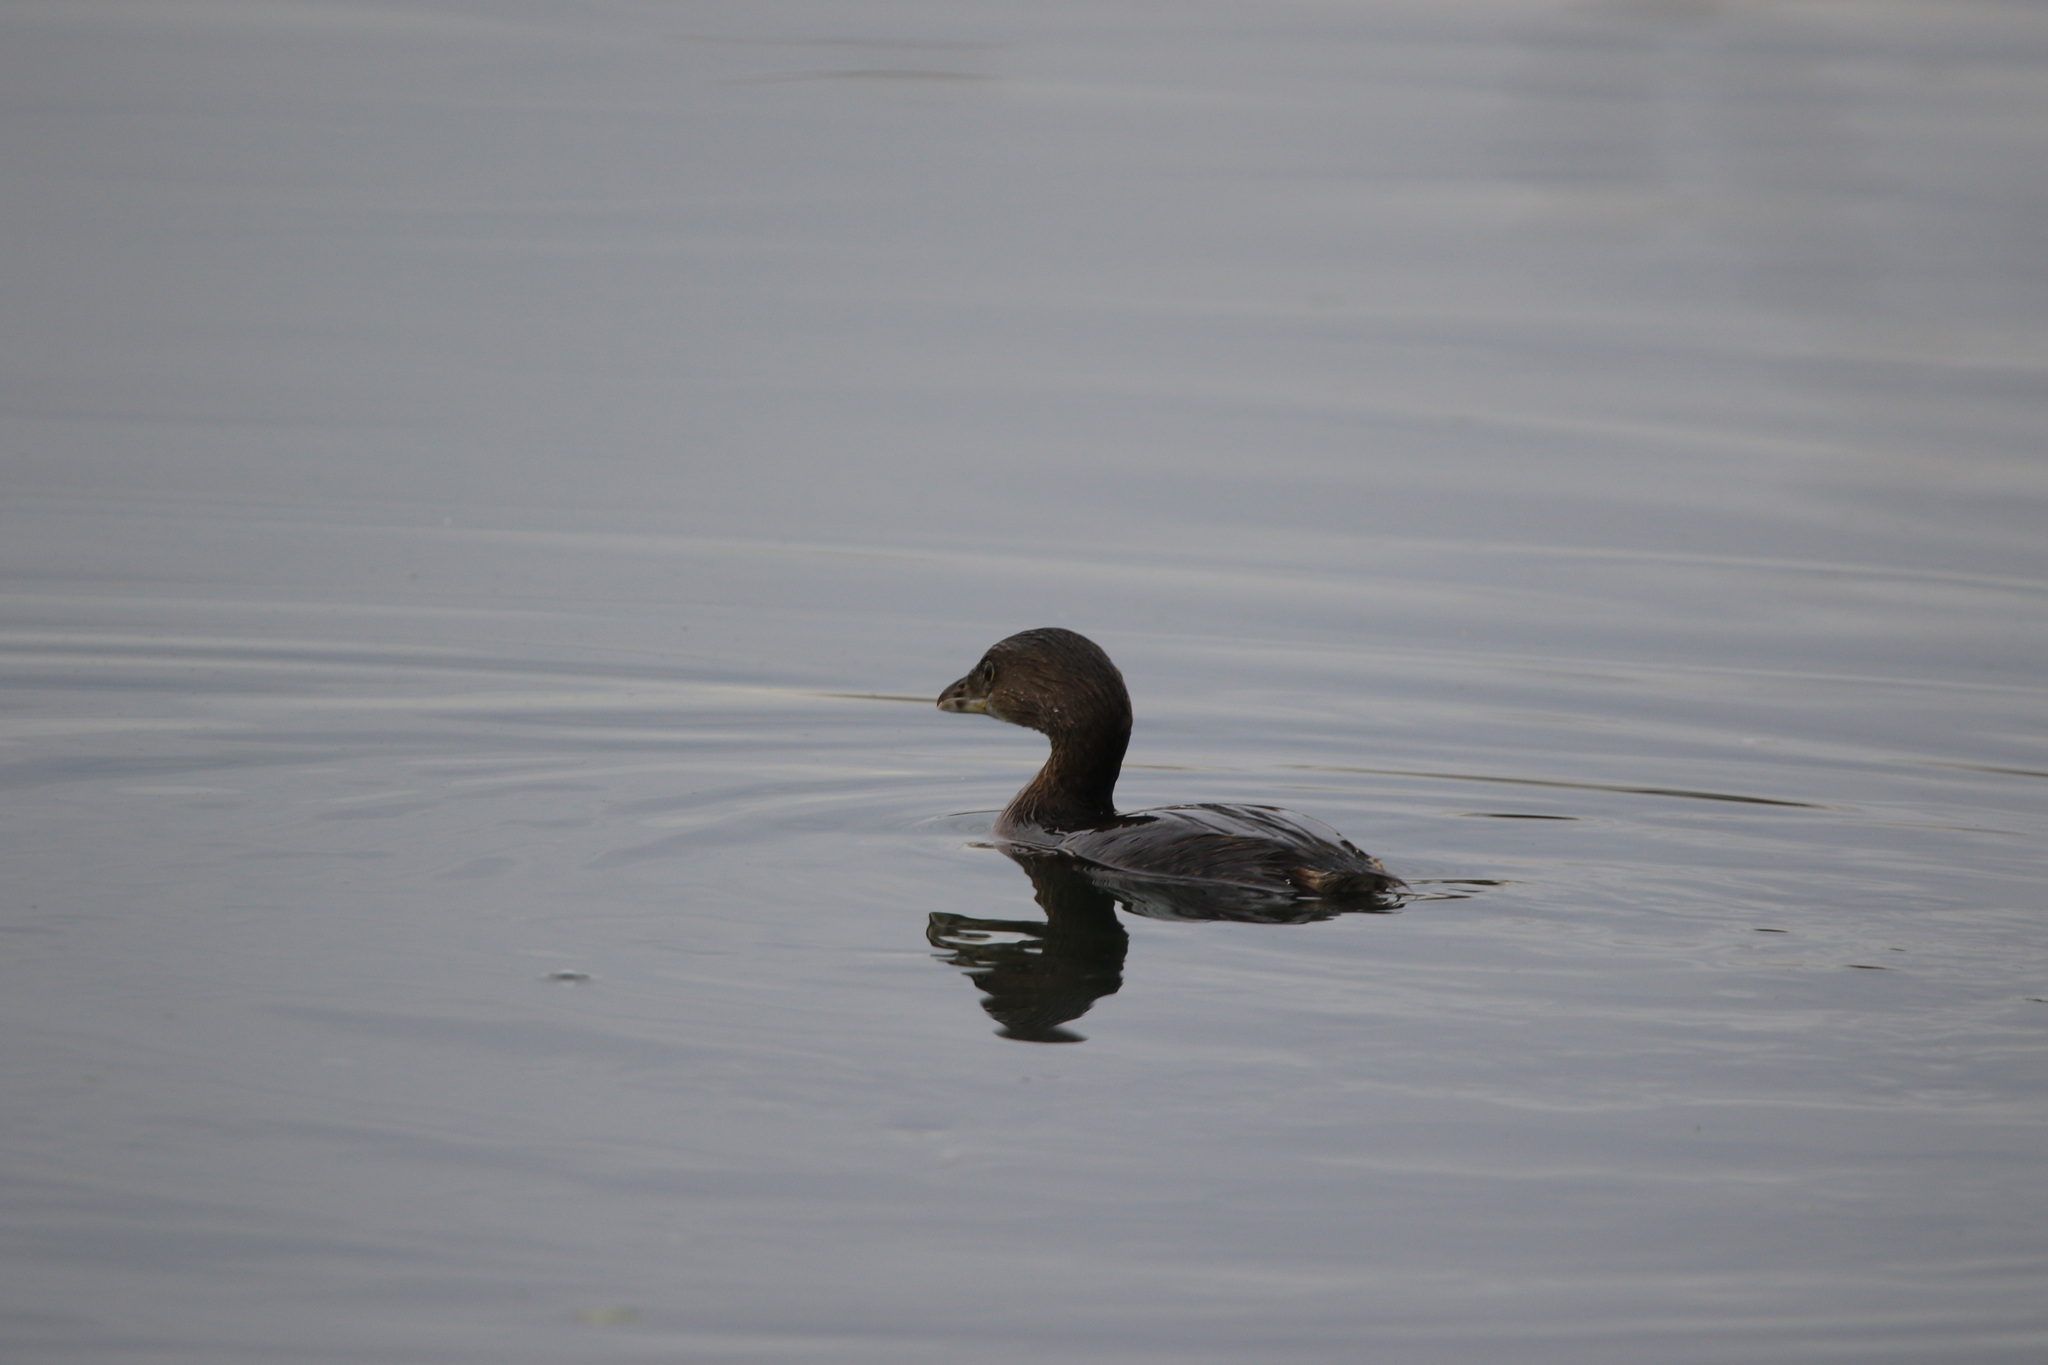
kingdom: Animalia
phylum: Chordata
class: Aves
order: Podicipediformes
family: Podicipedidae
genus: Podilymbus
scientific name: Podilymbus podiceps
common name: Pied-billed grebe
